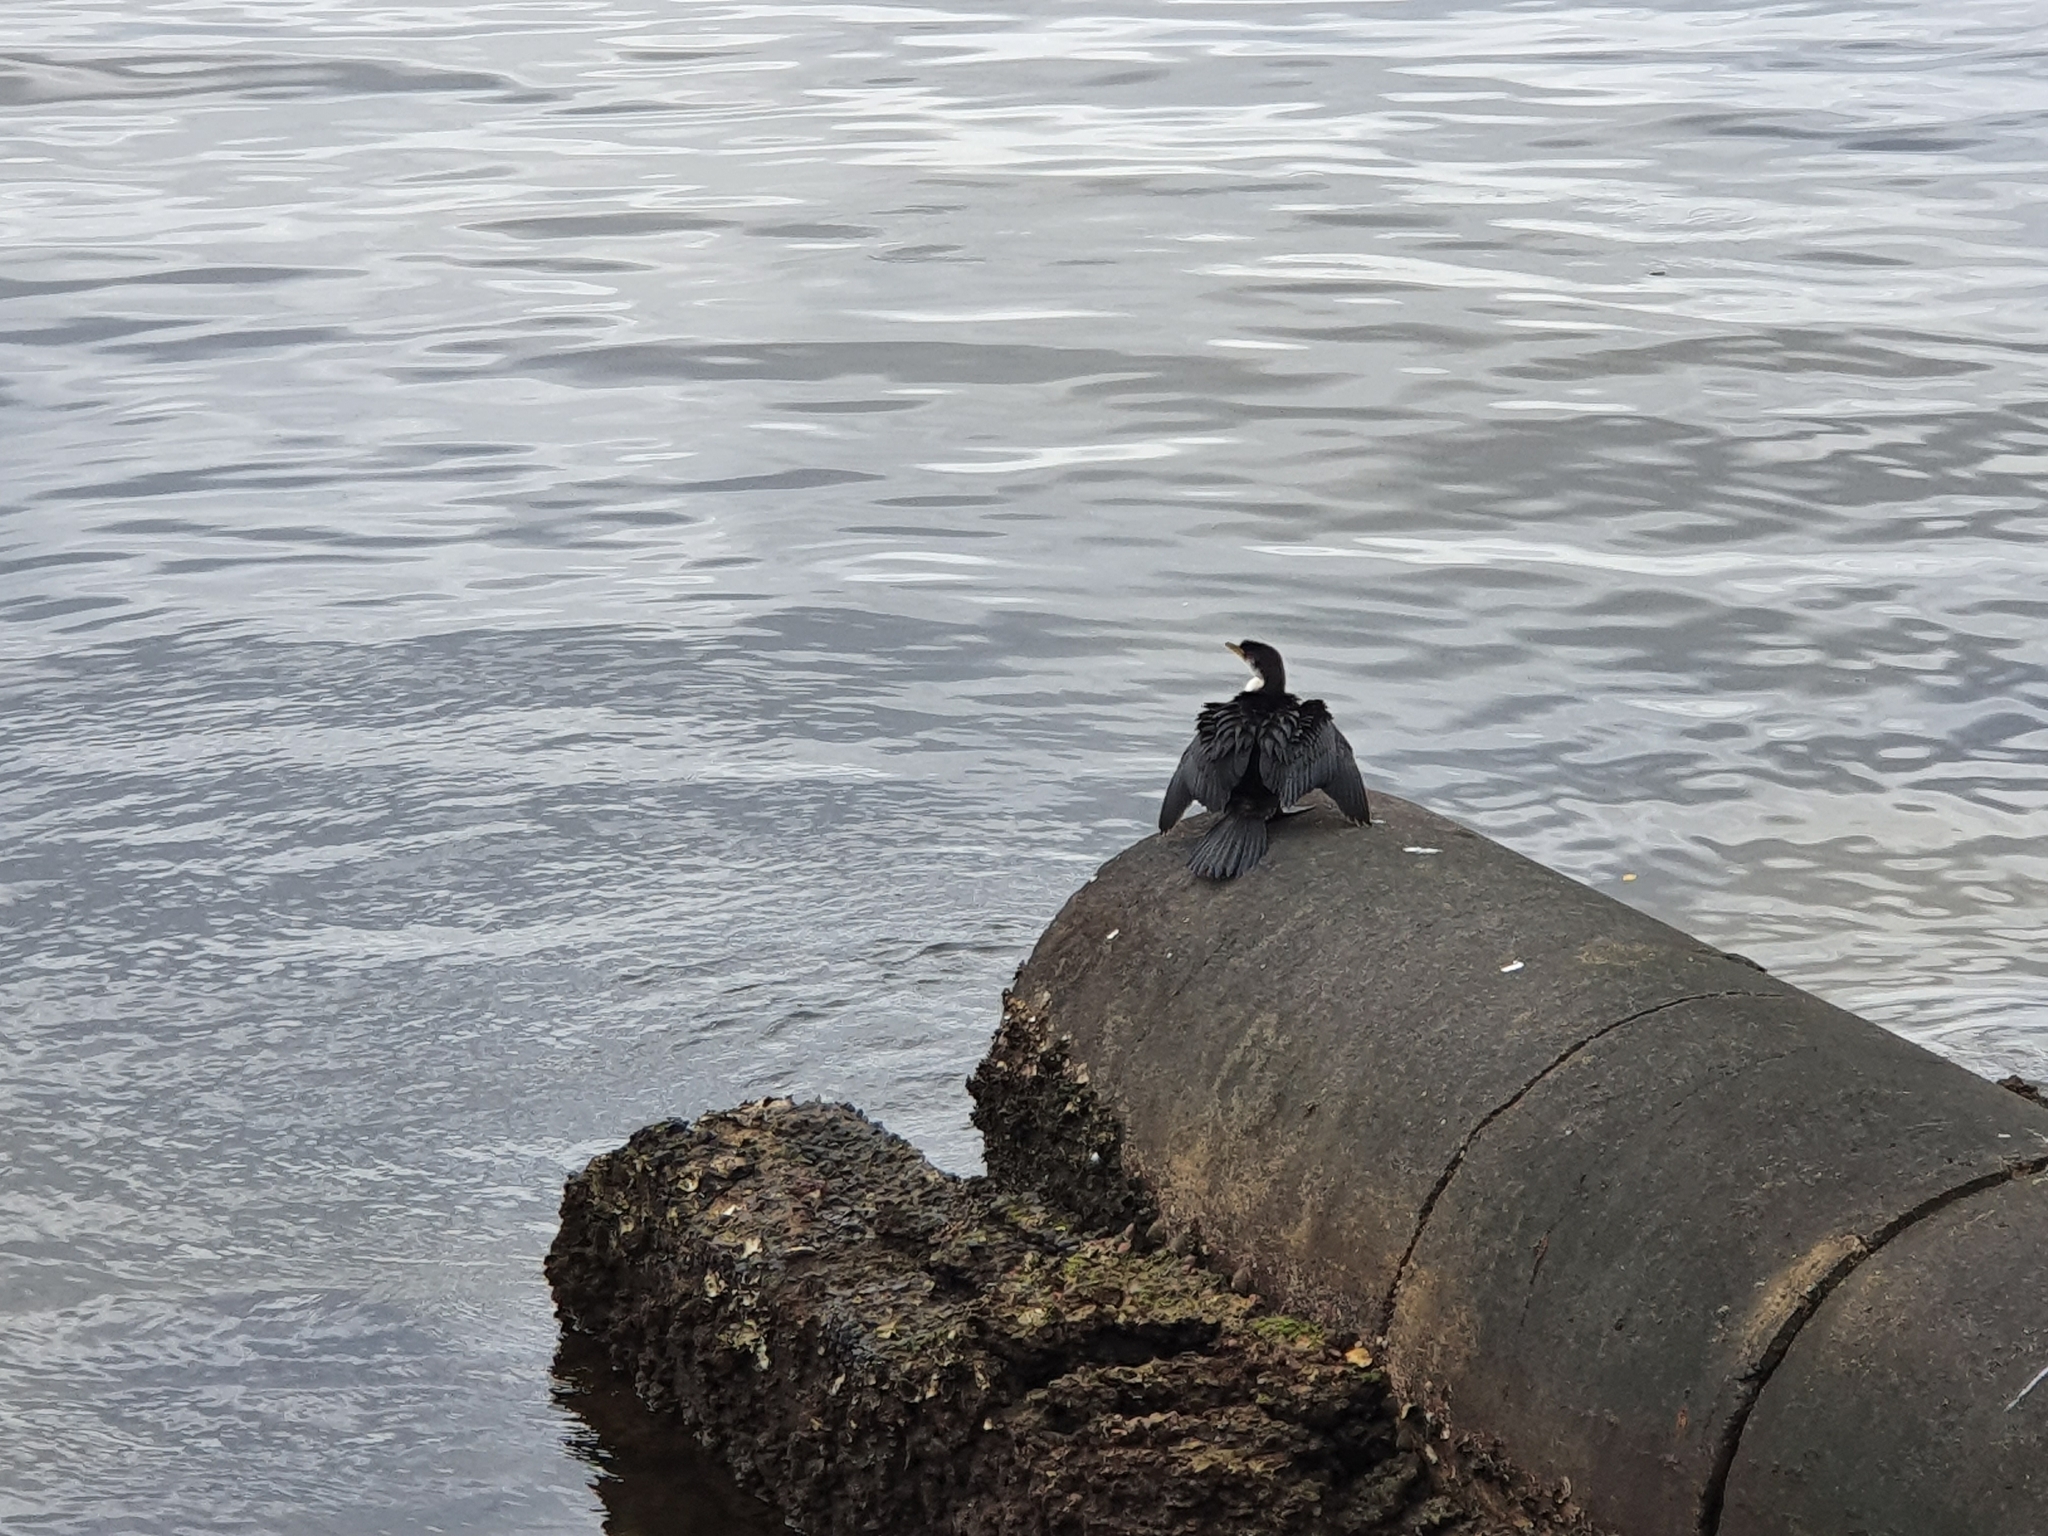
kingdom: Animalia
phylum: Chordata
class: Aves
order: Suliformes
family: Phalacrocoracidae
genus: Microcarbo
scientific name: Microcarbo melanoleucos
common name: Little pied cormorant
